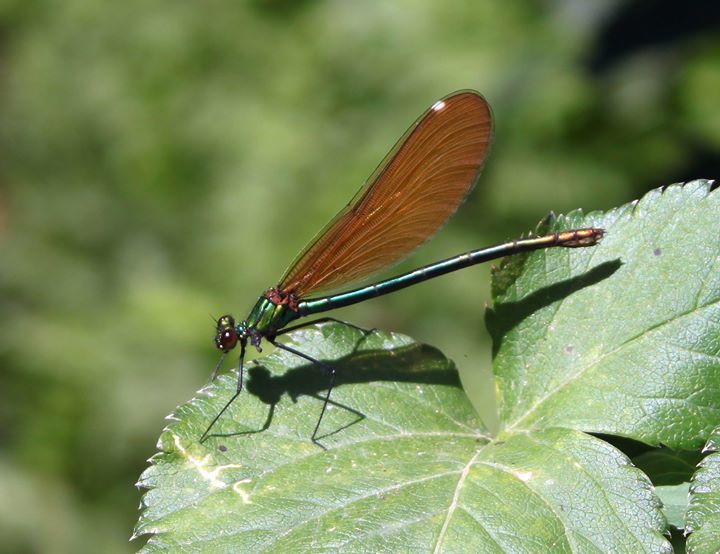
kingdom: Animalia
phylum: Arthropoda
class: Insecta
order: Odonata
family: Calopterygidae
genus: Calopteryx
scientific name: Calopteryx virgo
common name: Beautiful demoiselle
